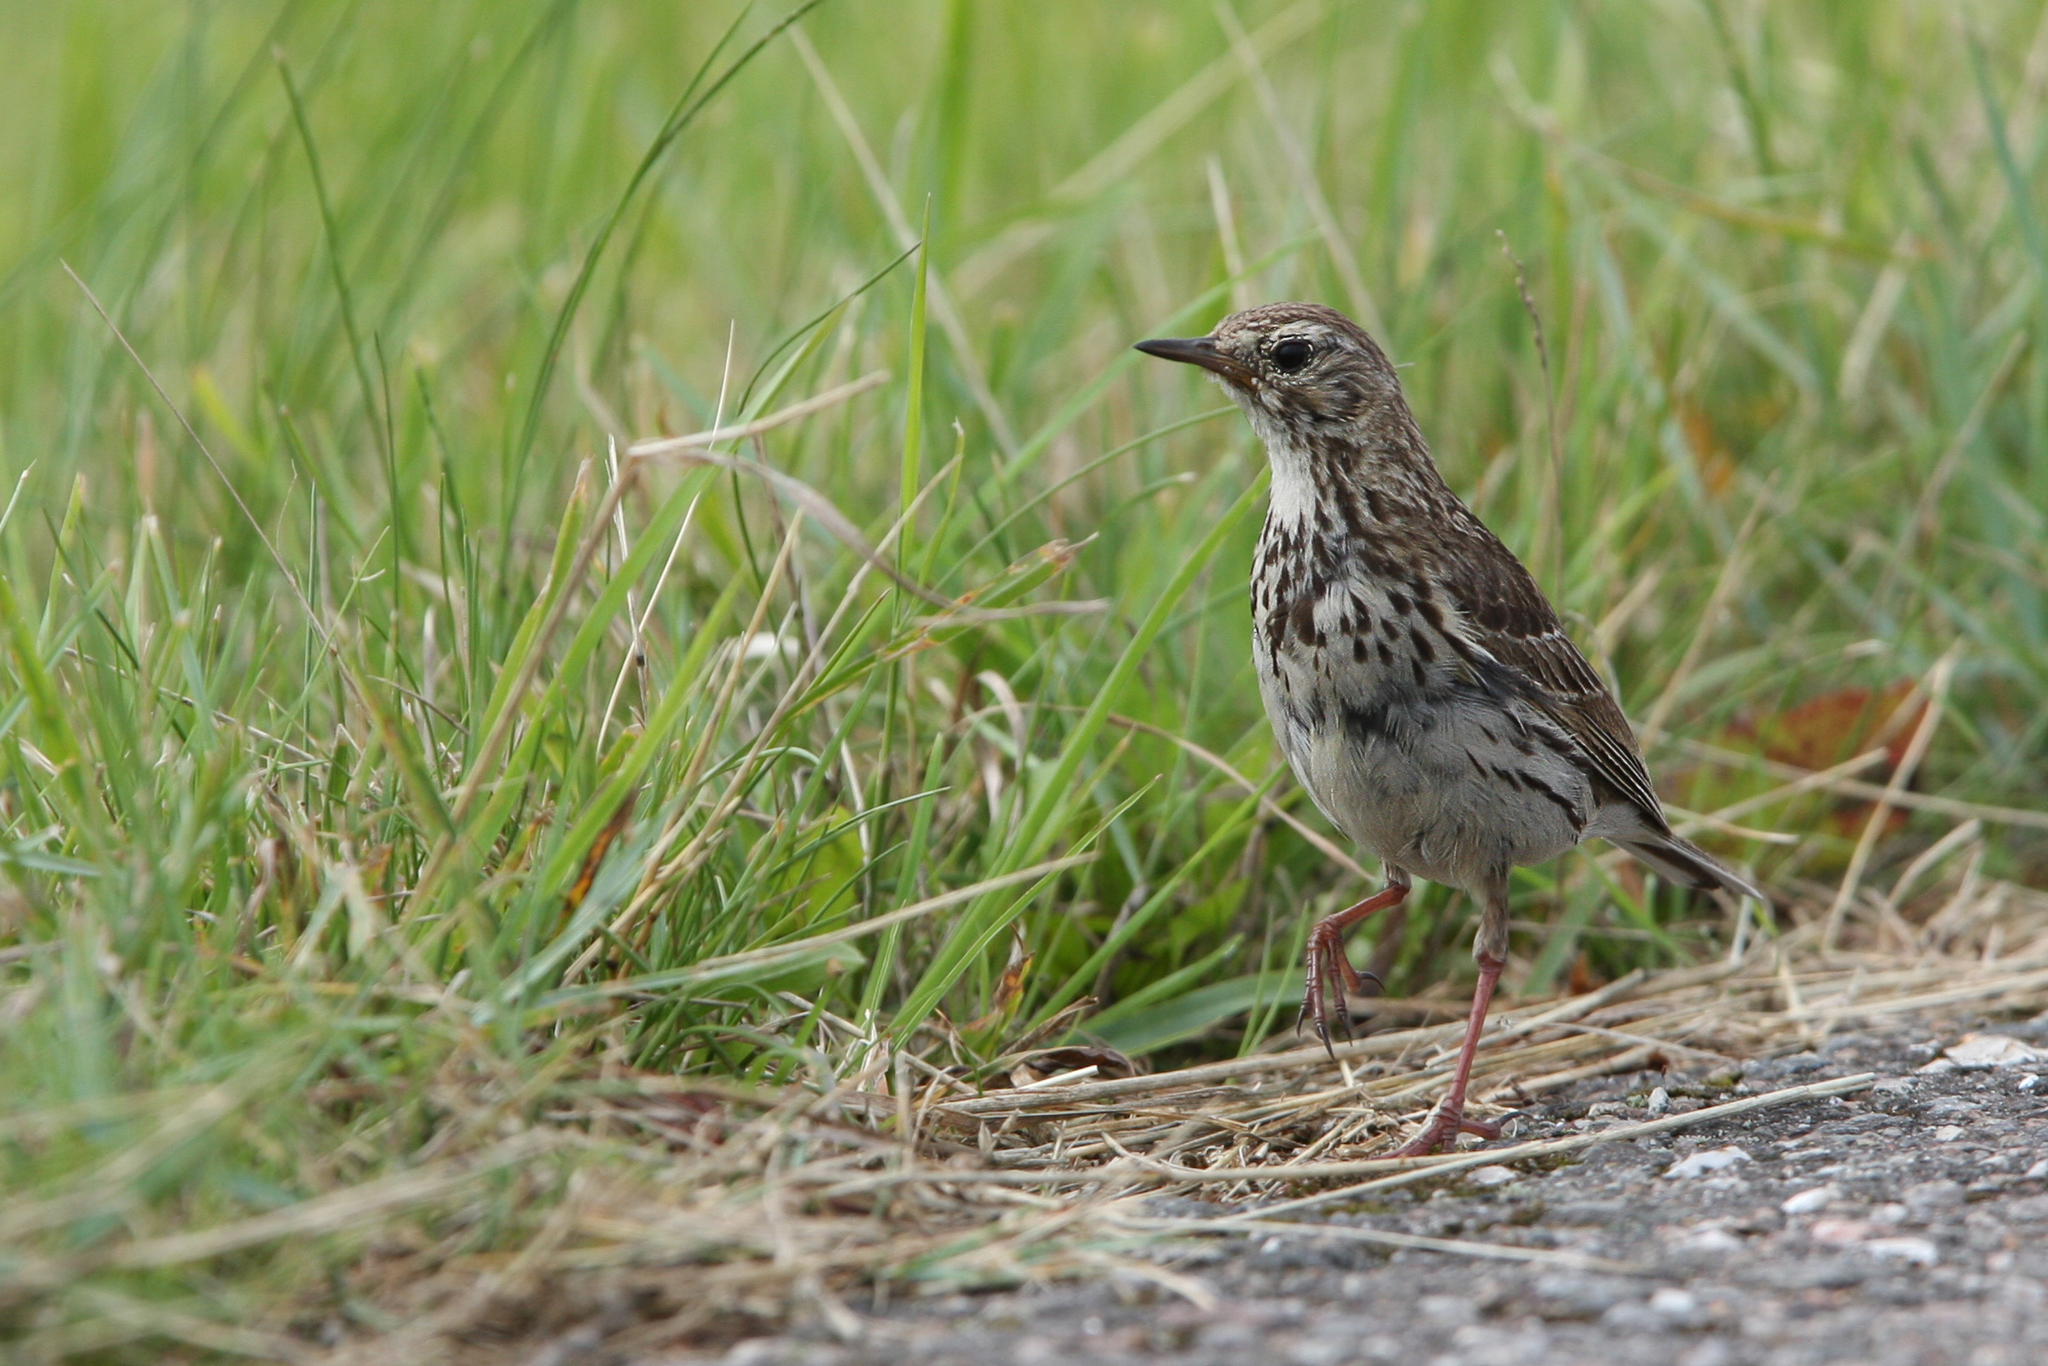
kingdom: Animalia
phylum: Chordata
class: Aves
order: Passeriformes
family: Motacillidae
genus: Anthus
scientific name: Anthus pratensis
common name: Meadow pipit
